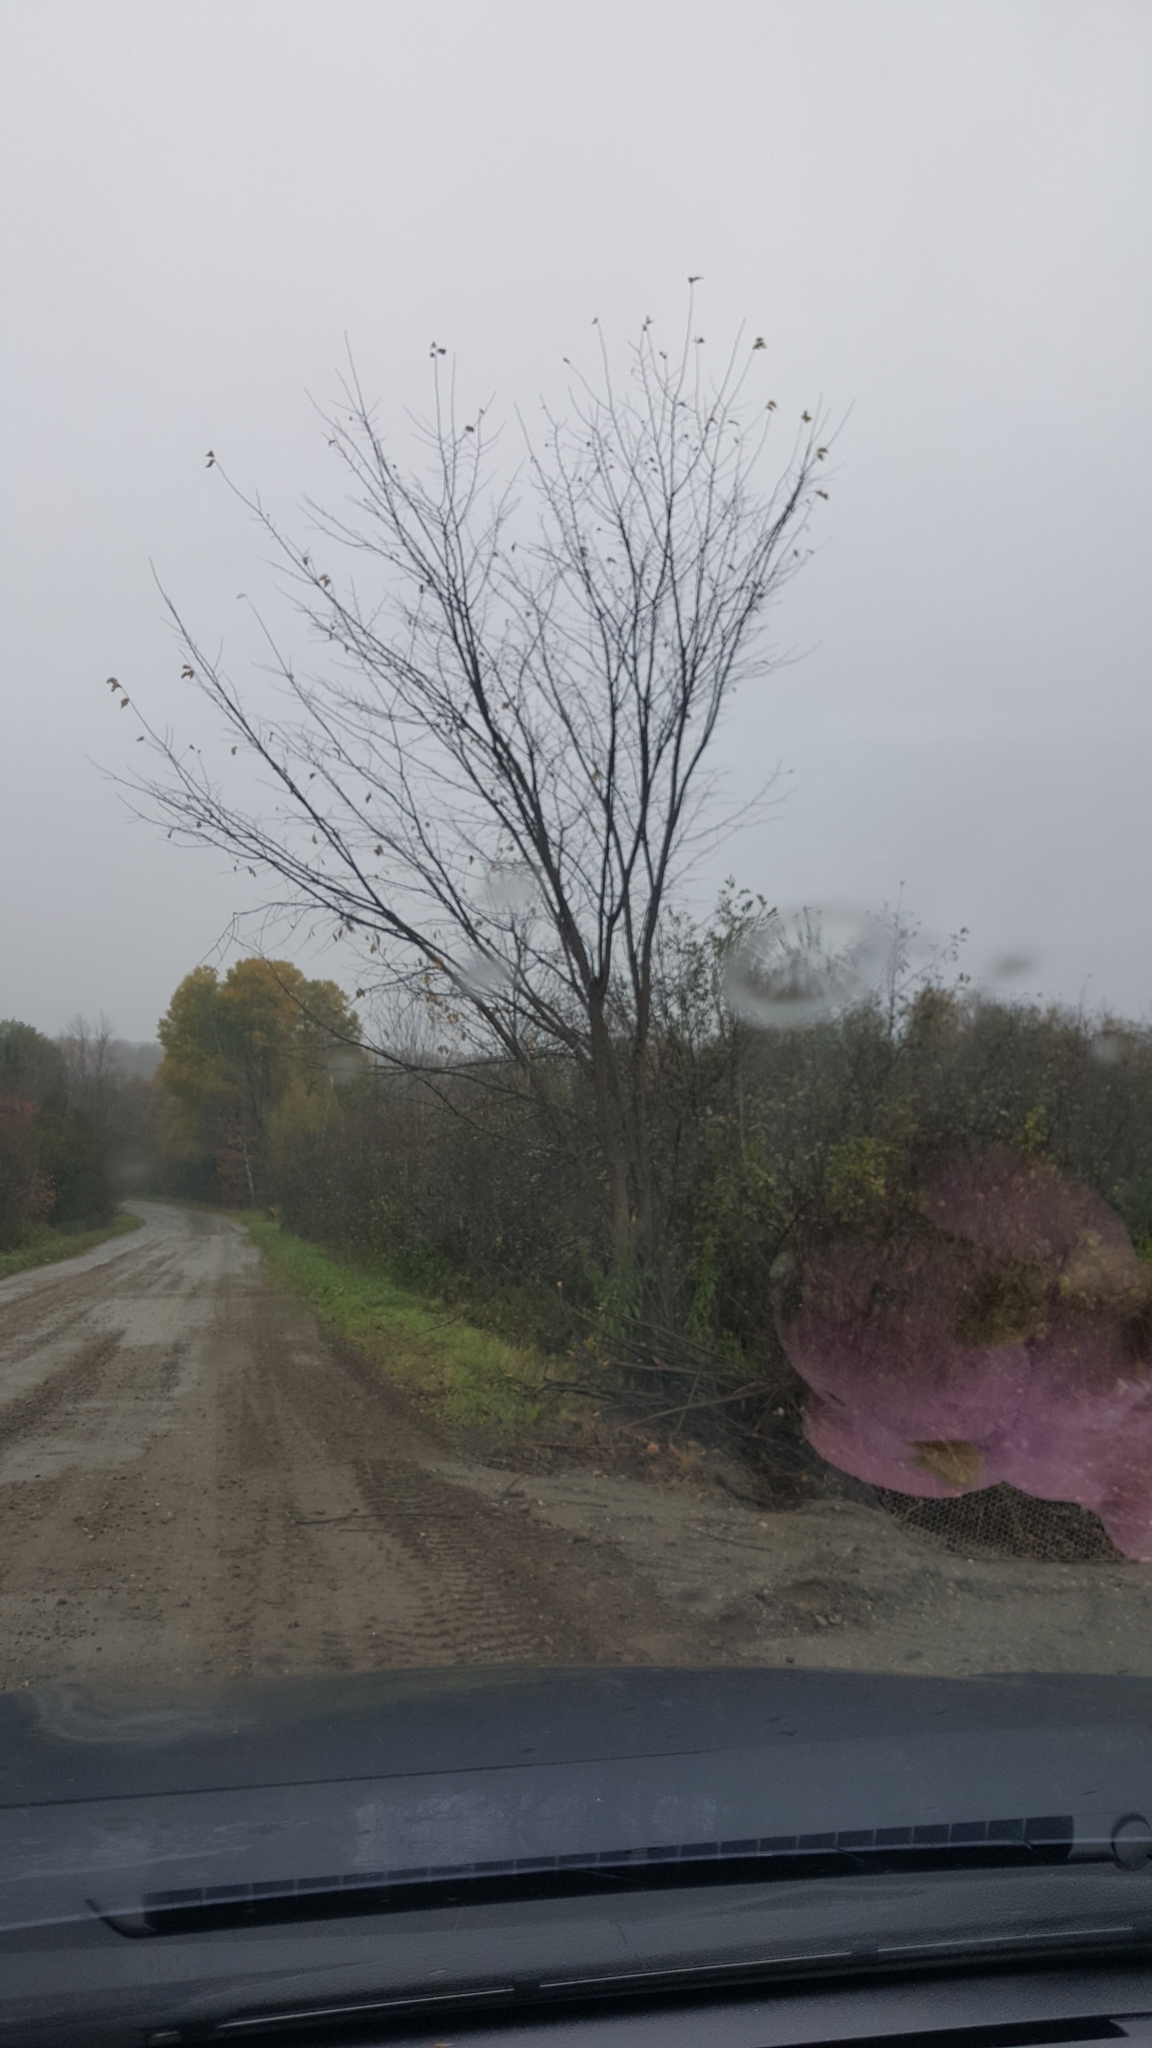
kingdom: Plantae
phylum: Tracheophyta
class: Magnoliopsida
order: Rosales
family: Ulmaceae
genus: Ulmus
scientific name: Ulmus americana
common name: American elm
